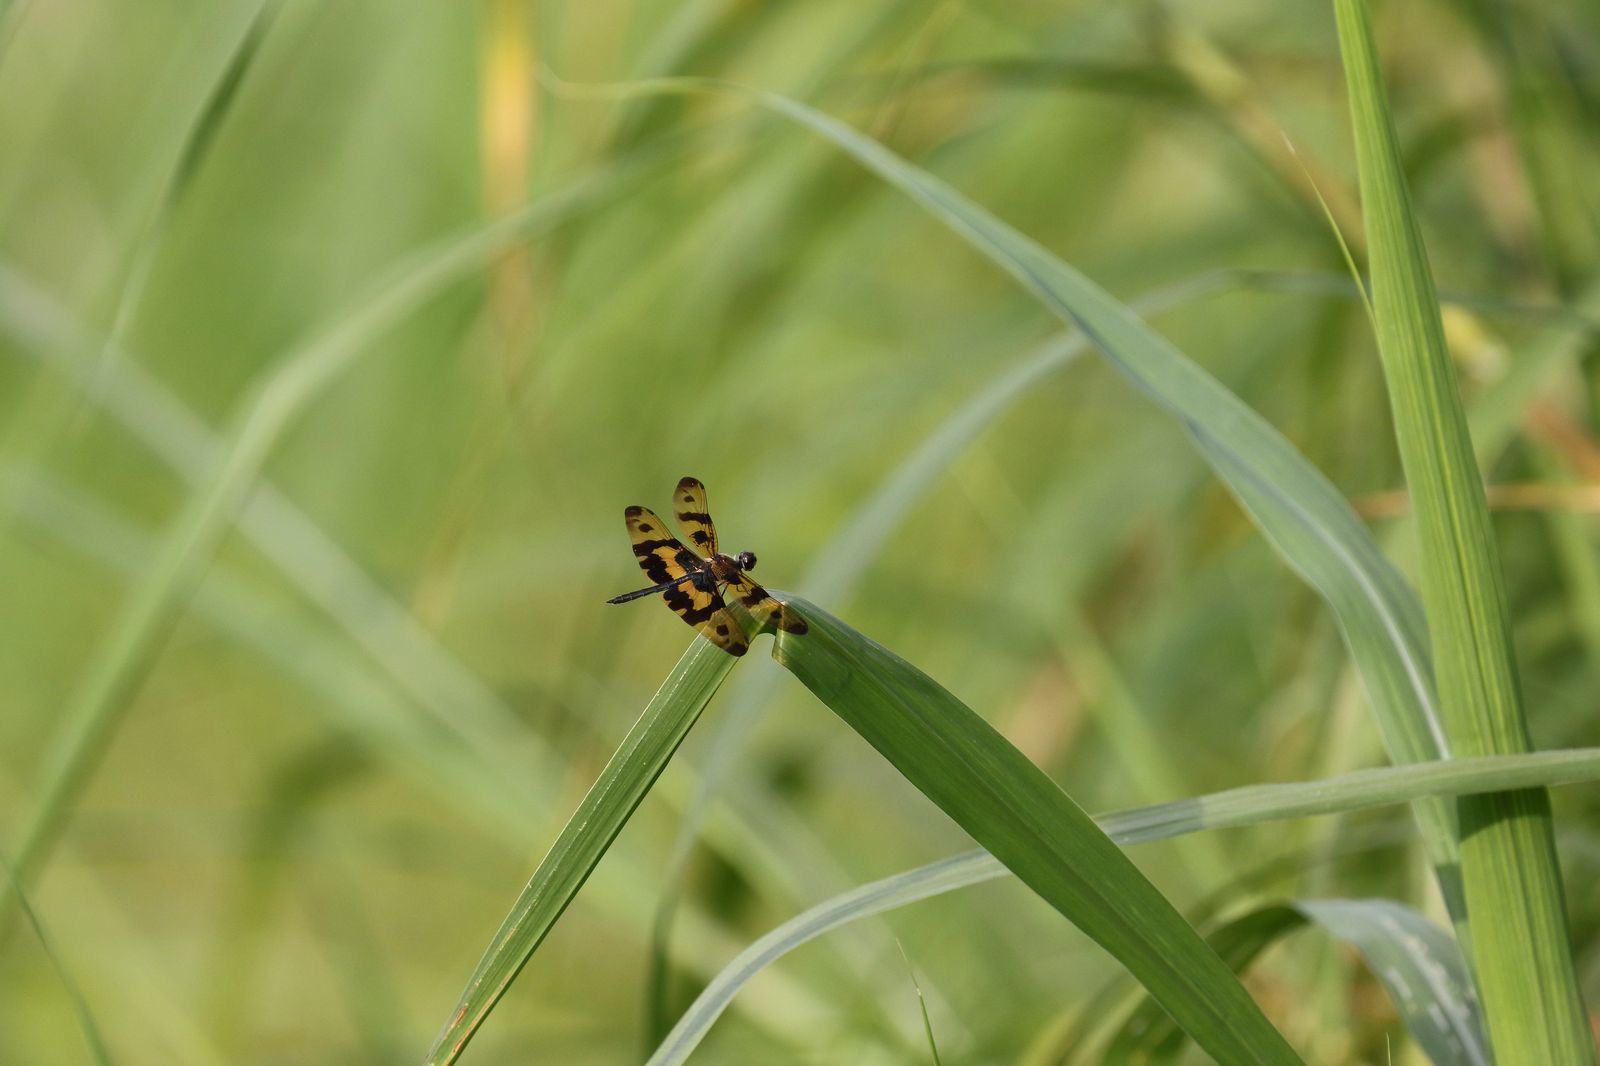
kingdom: Animalia
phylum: Arthropoda
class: Insecta
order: Odonata
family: Libellulidae
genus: Rhyothemis
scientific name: Rhyothemis variegata
